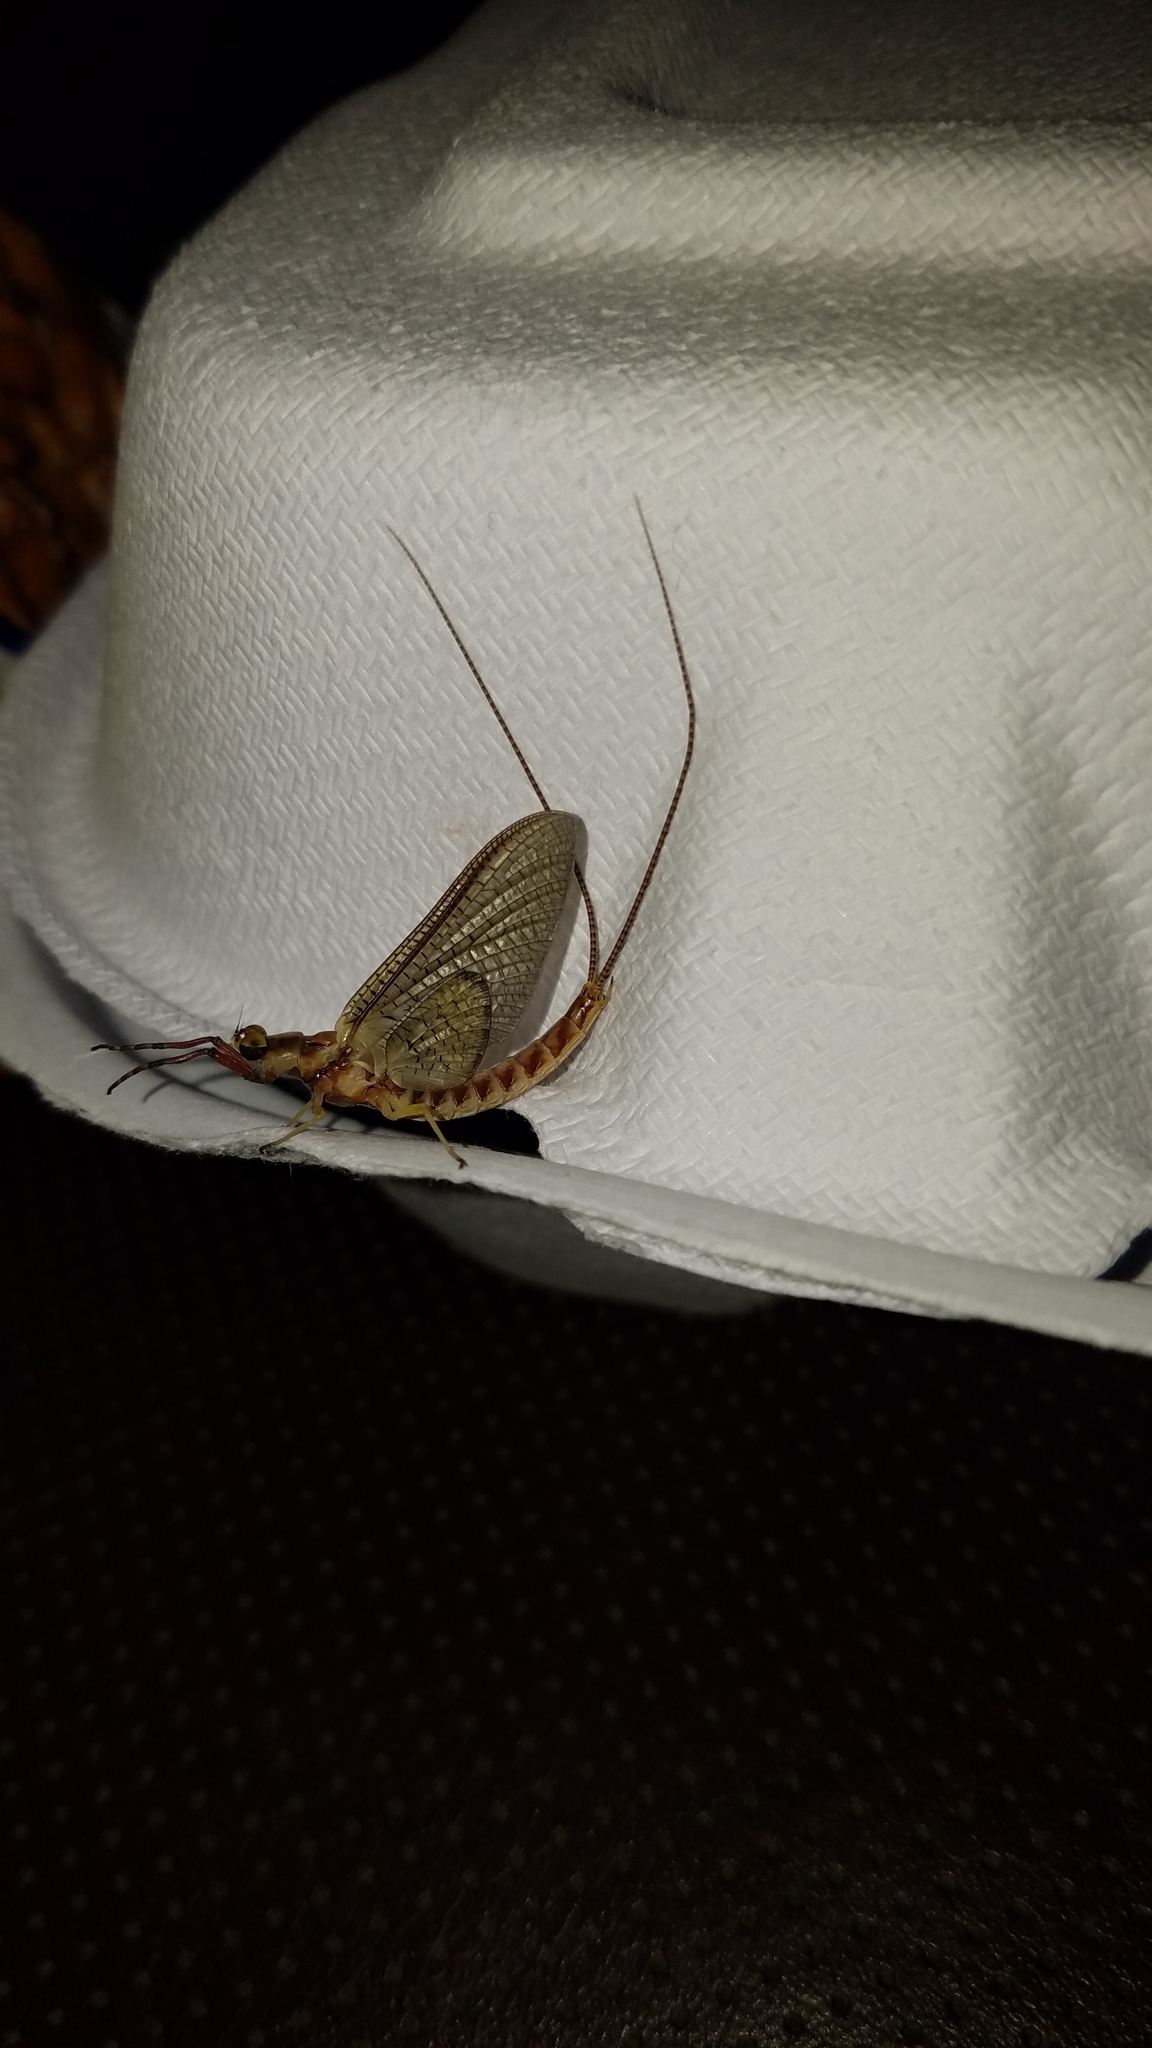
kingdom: Animalia
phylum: Arthropoda
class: Insecta
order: Ephemeroptera
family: Ephemeridae
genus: Hexagenia
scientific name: Hexagenia limbata
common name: Giant mayfly
